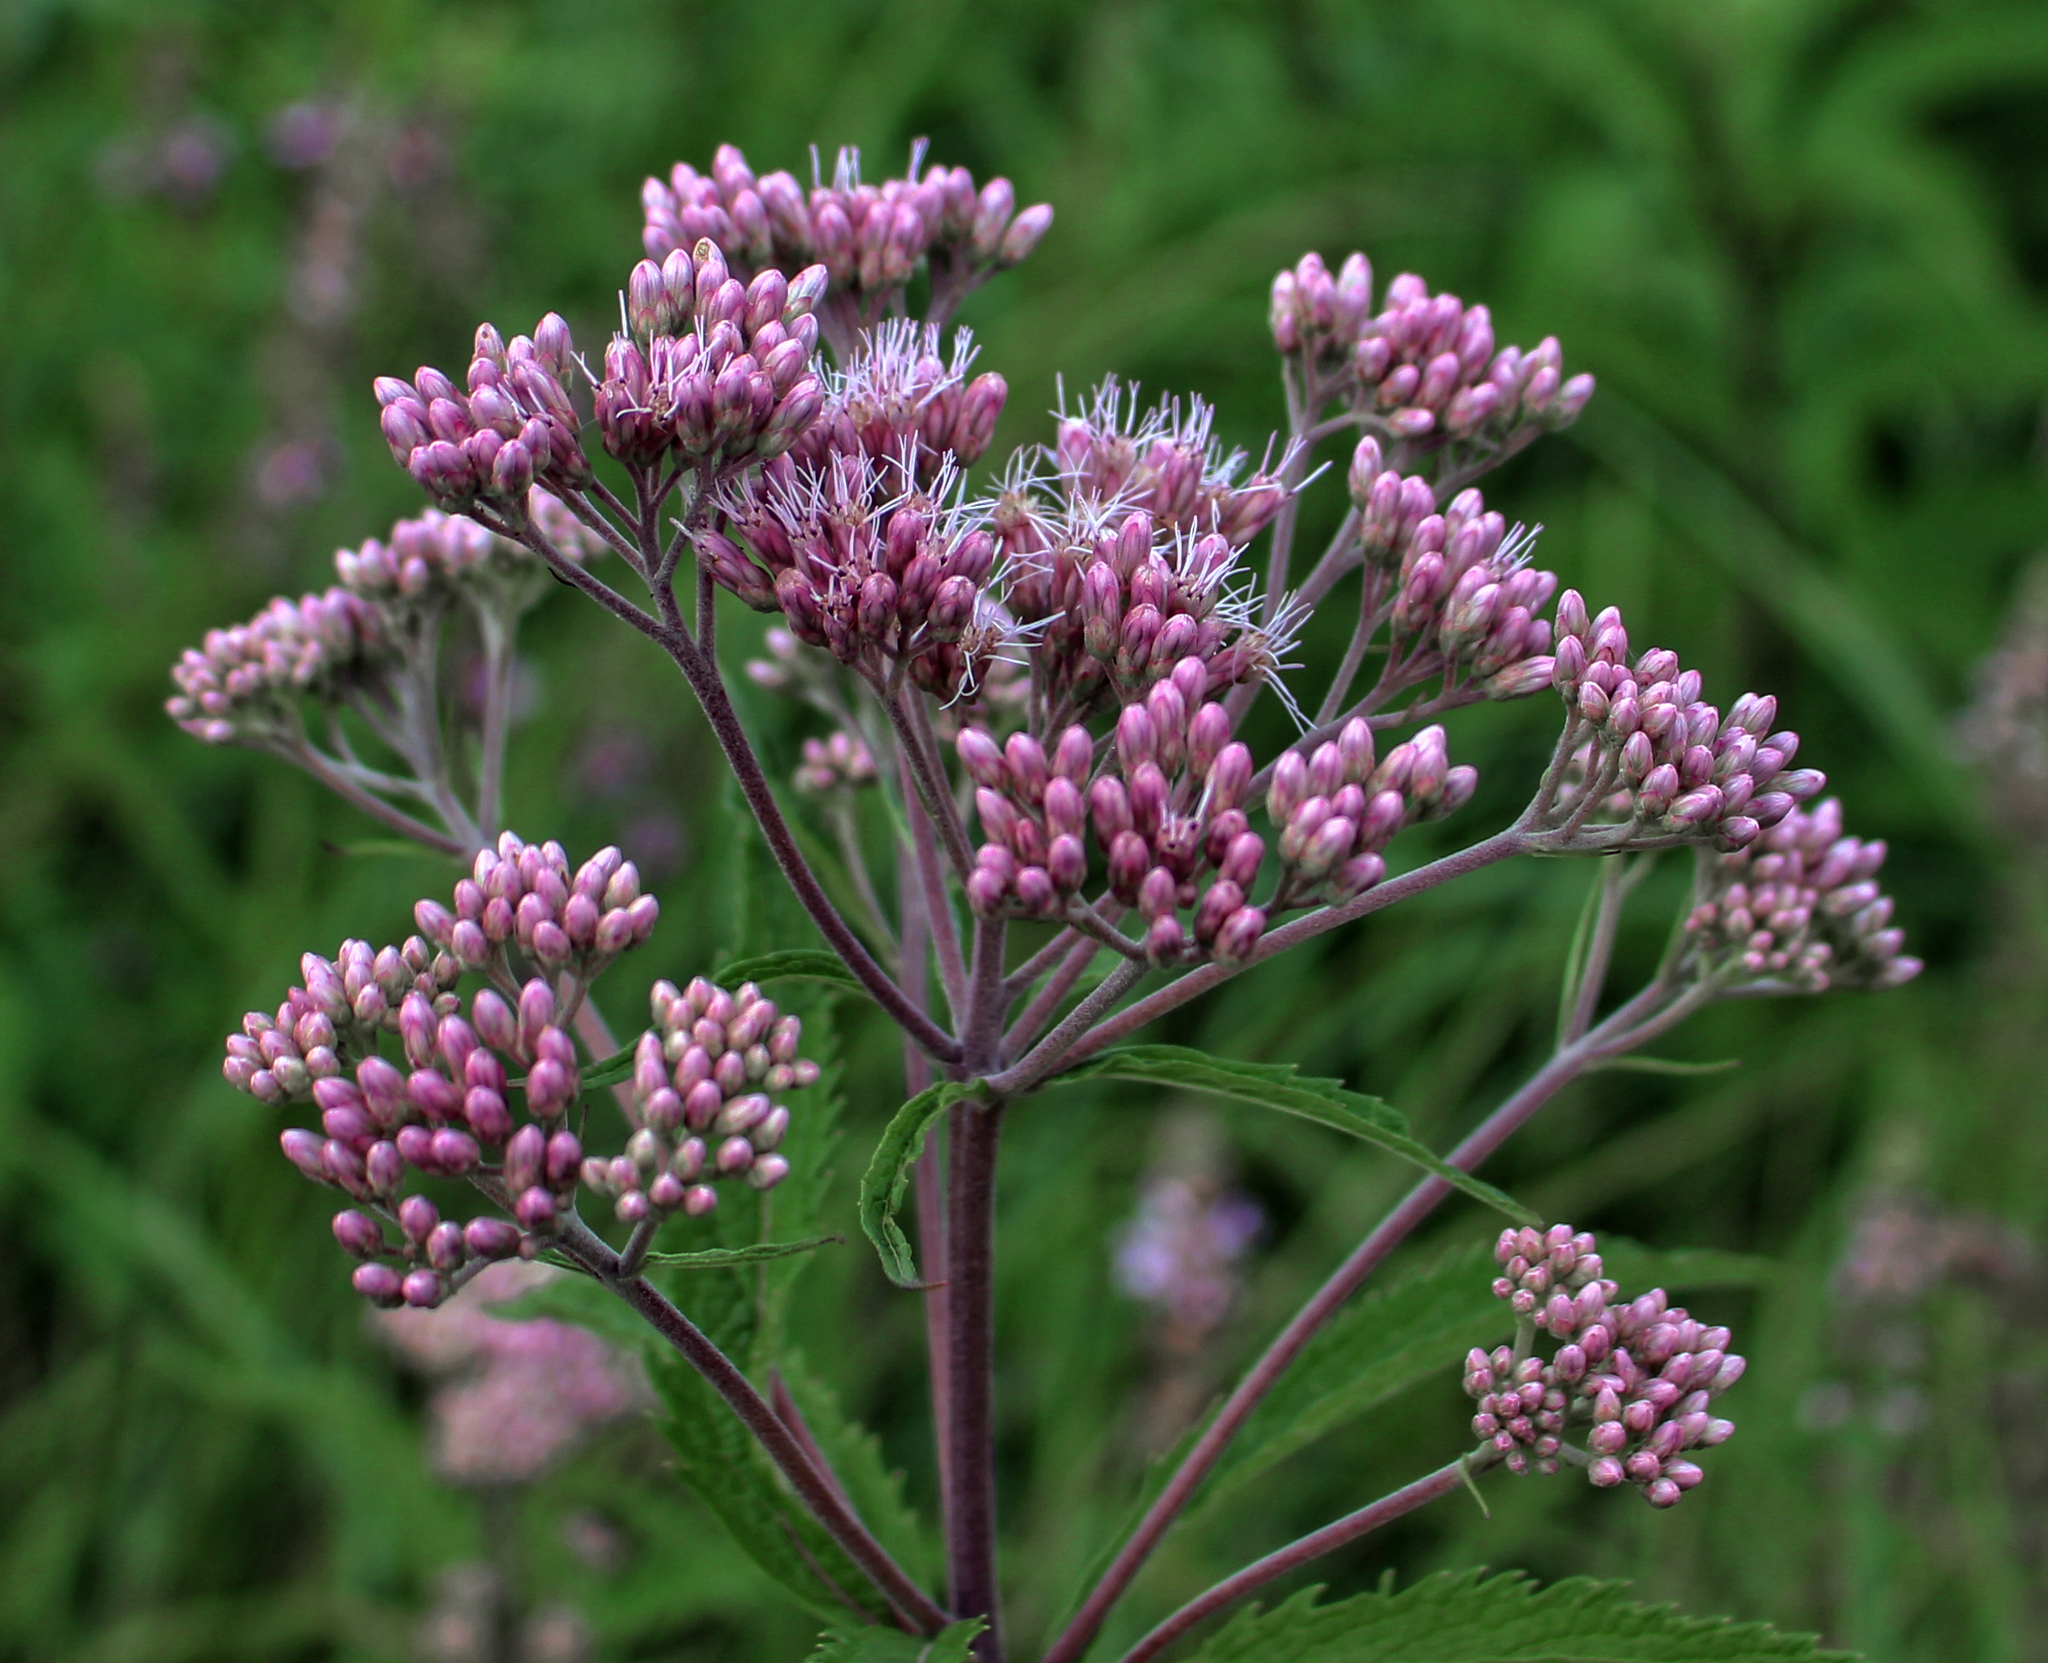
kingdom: Plantae
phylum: Tracheophyta
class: Magnoliopsida
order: Asterales
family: Asteraceae
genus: Eutrochium
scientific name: Eutrochium maculatum
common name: Spotted joe pye weed
